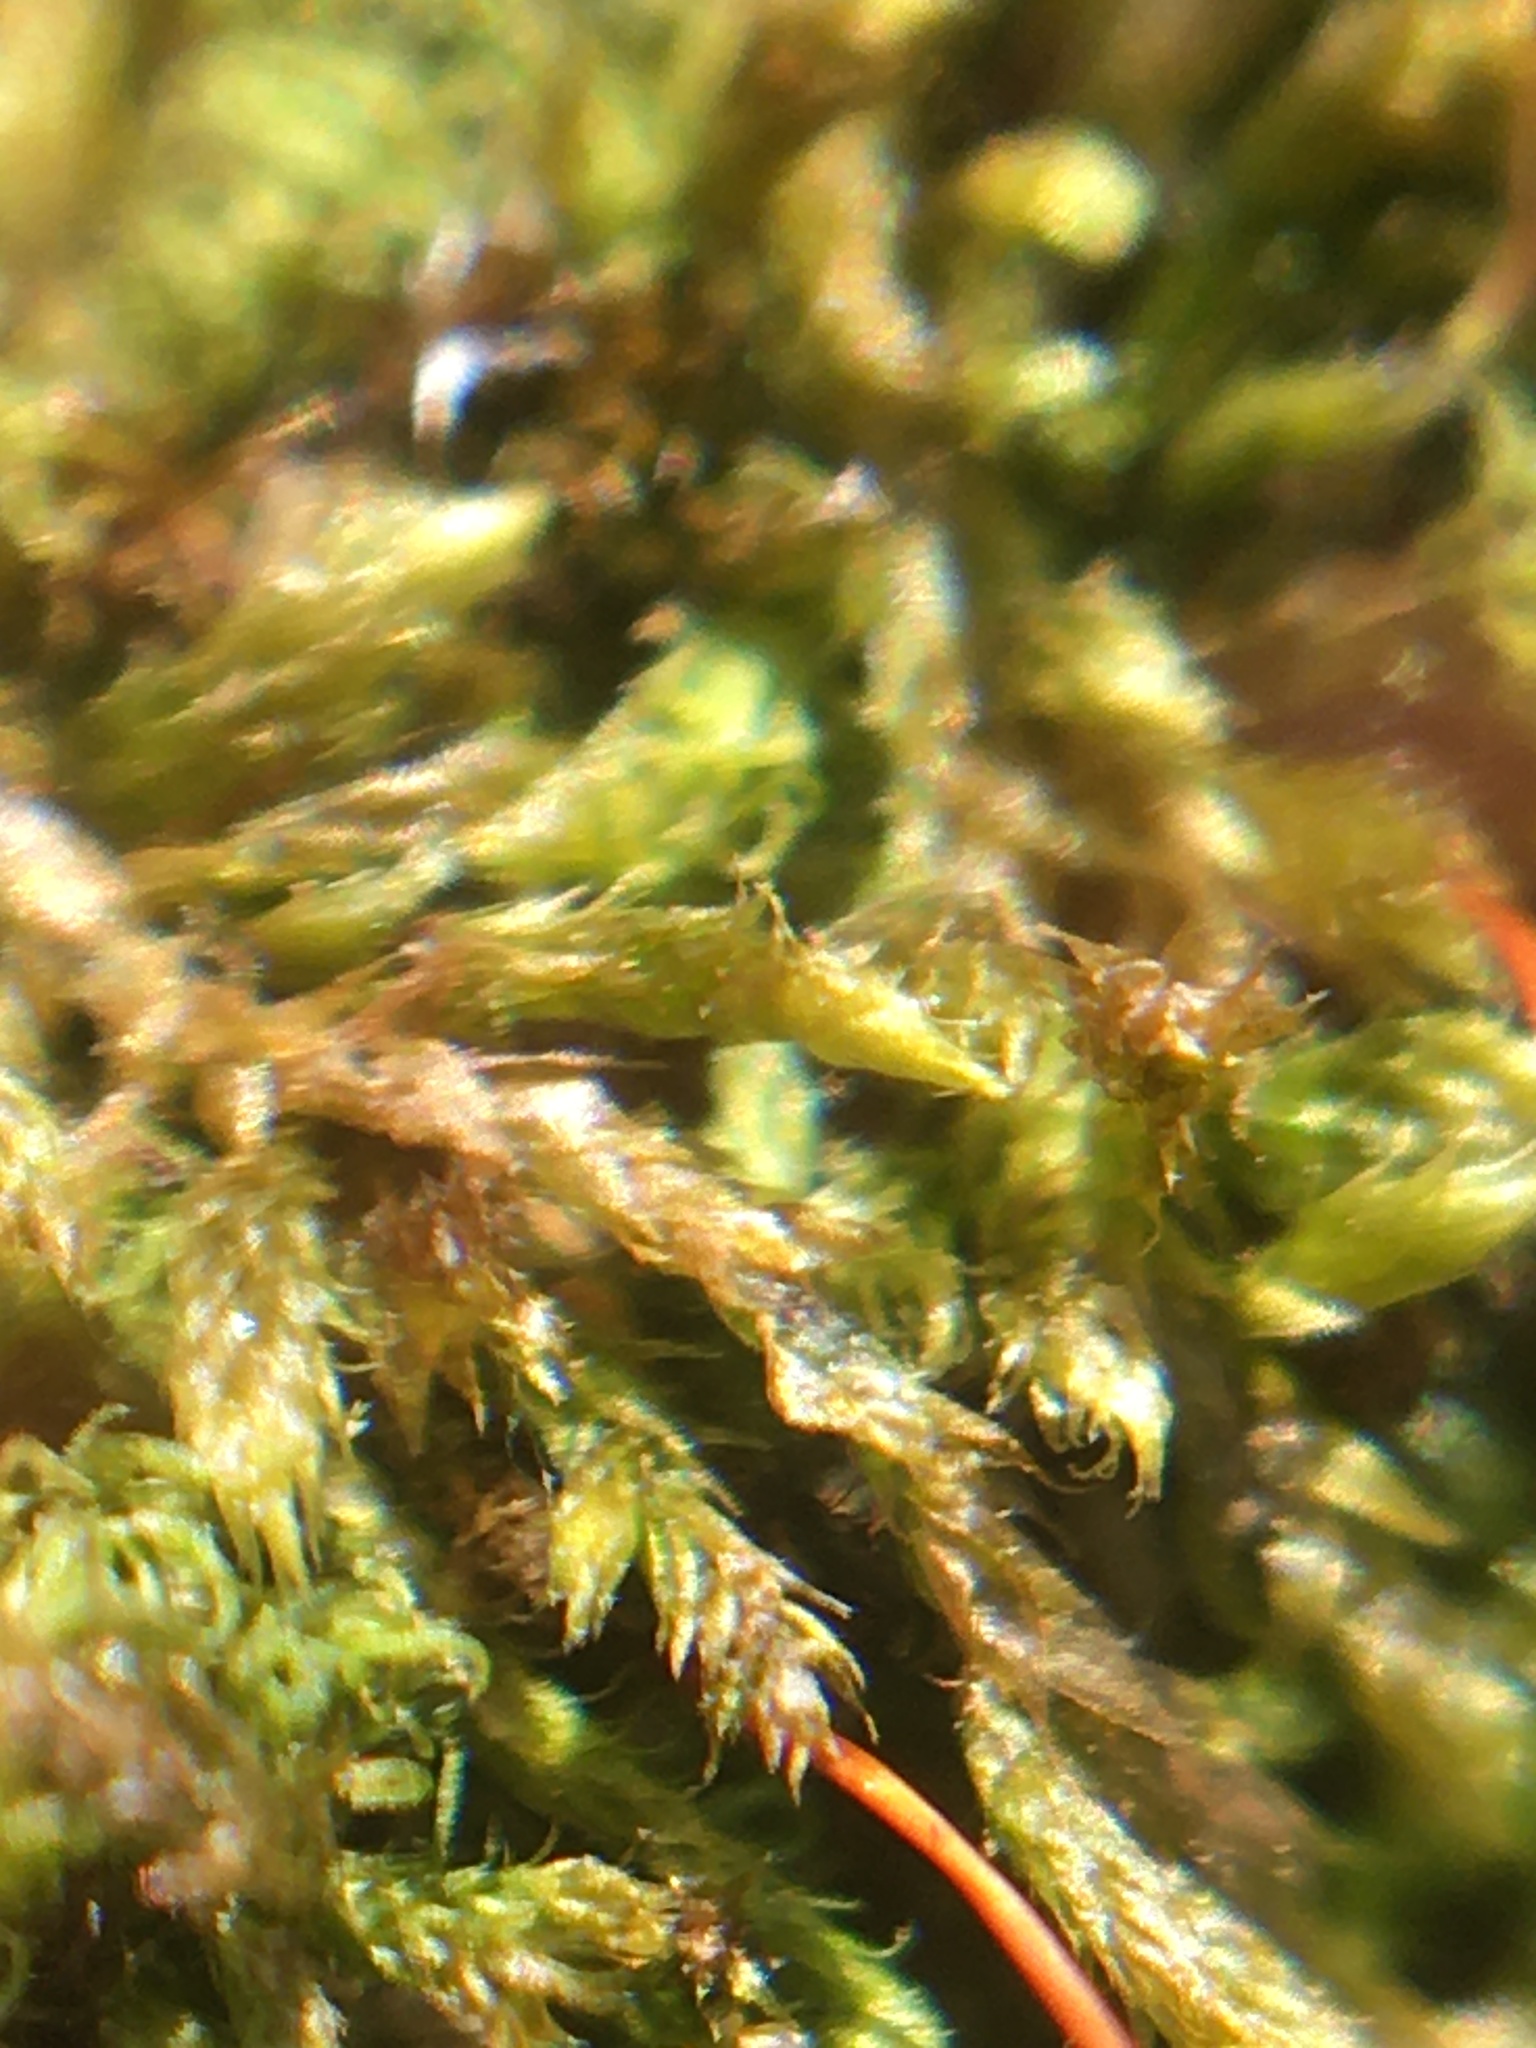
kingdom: Plantae
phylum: Bryophyta
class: Bryopsida
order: Hypnales
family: Pylaisiadelphaceae
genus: Platygyrium
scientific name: Platygyrium repens
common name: Flat-brocade moss
